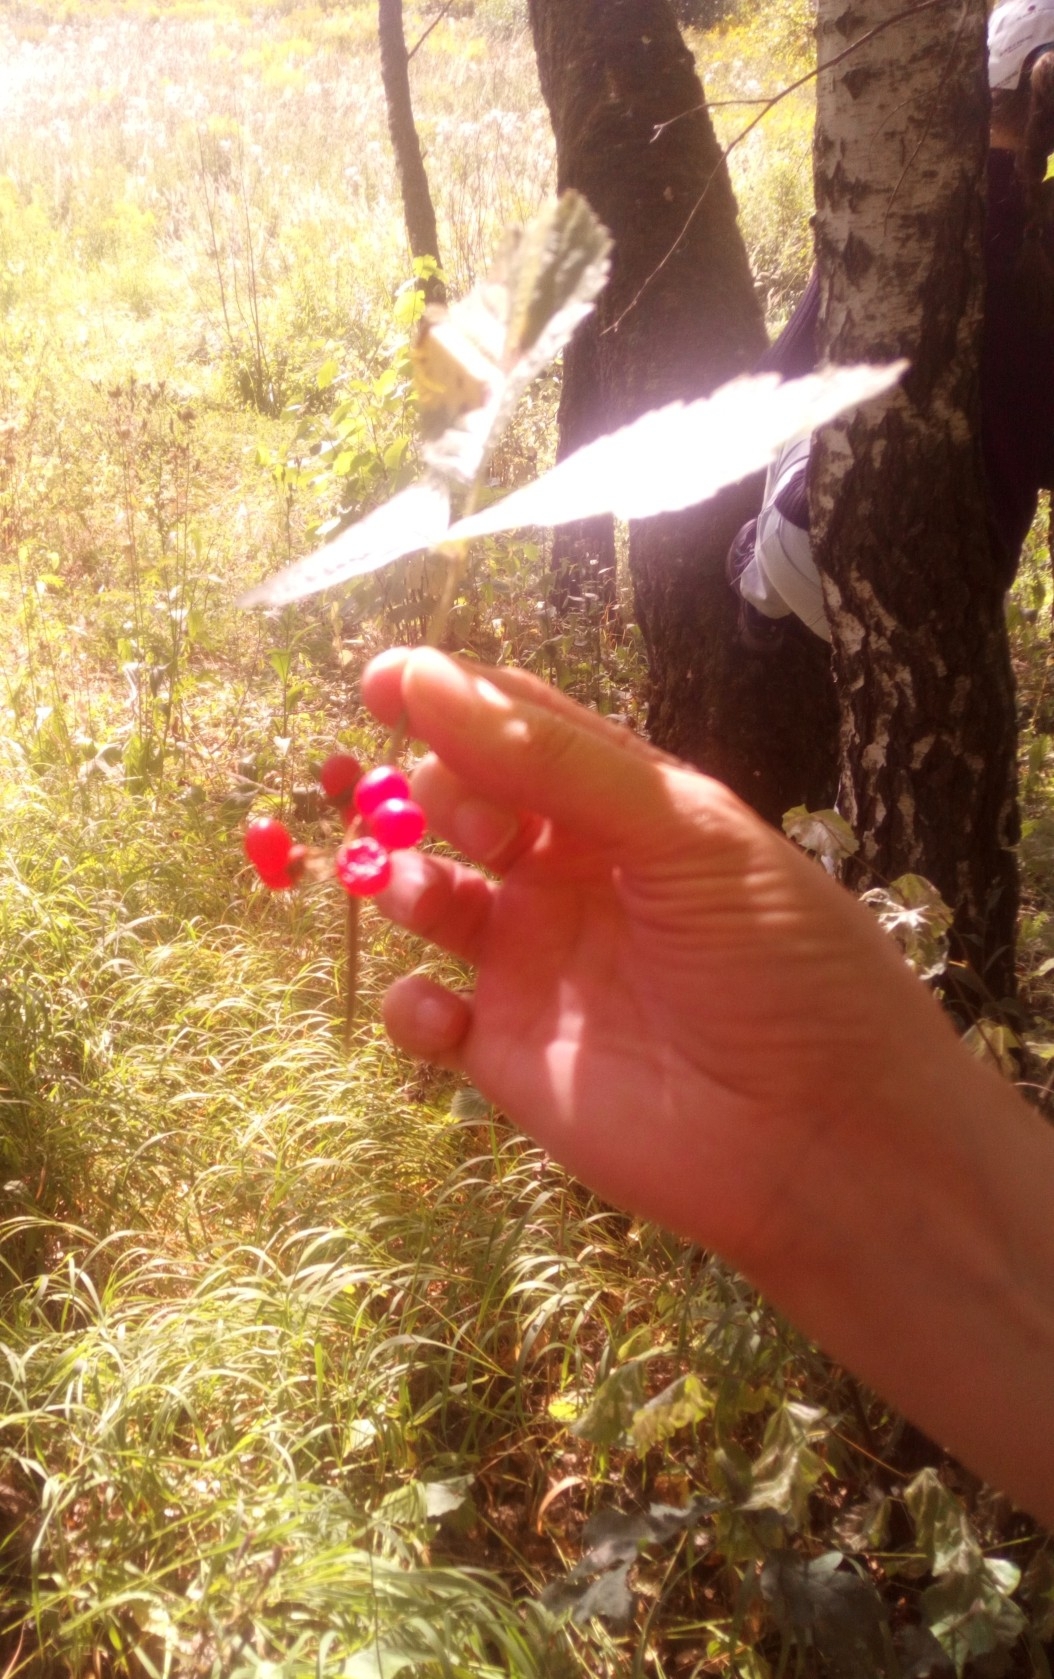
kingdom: Plantae
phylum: Tracheophyta
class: Magnoliopsida
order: Rosales
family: Rosaceae
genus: Rubus
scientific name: Rubus saxatilis
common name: Stone bramble
